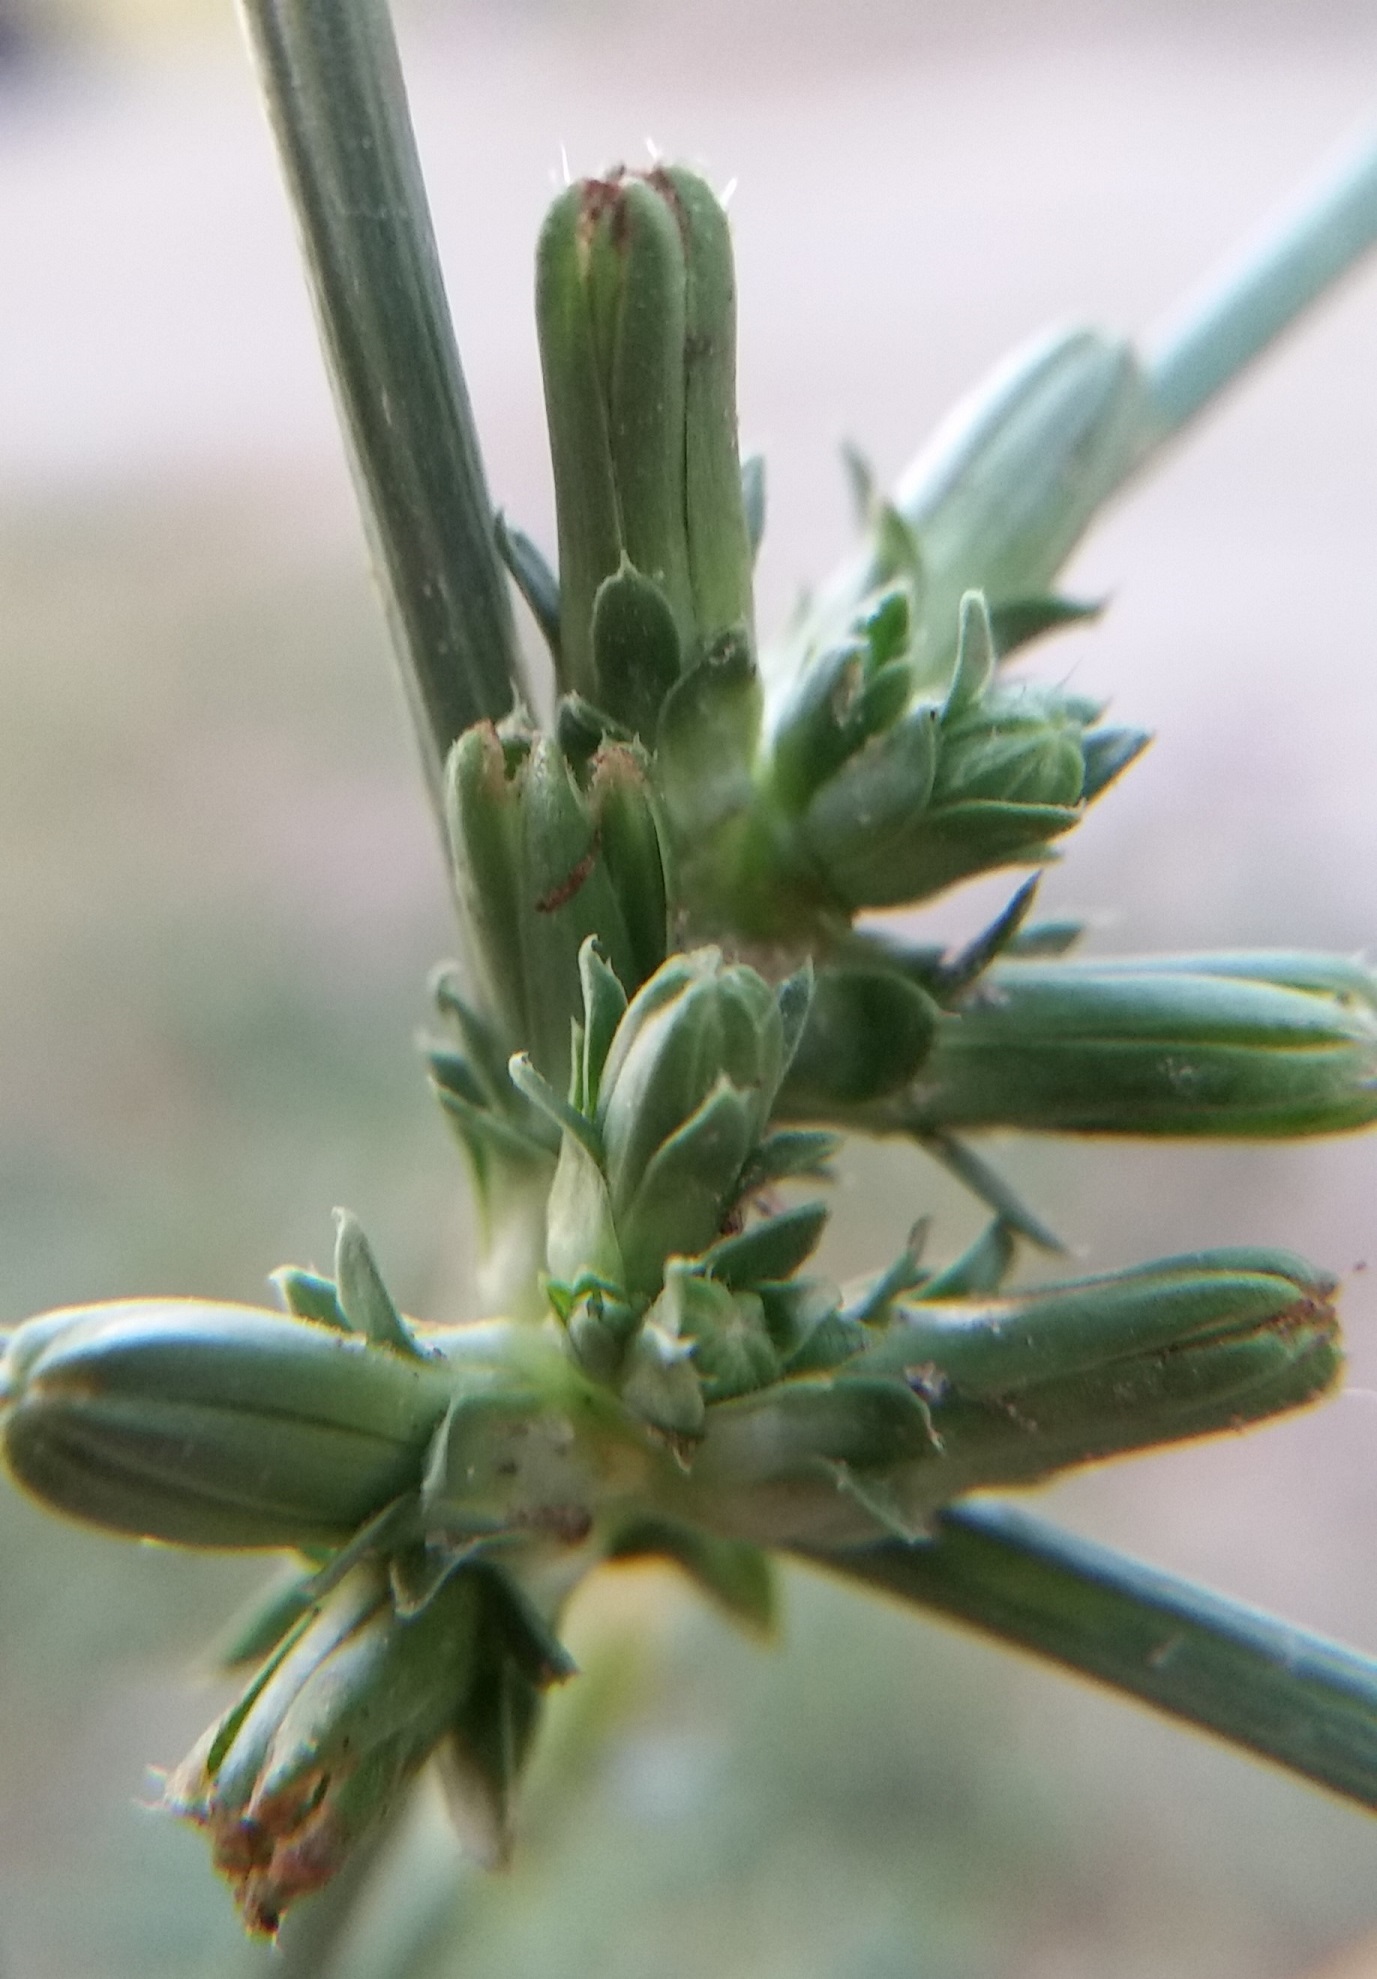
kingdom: Plantae
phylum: Tracheophyta
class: Magnoliopsida
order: Asterales
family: Asteraceae
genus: Cichorium
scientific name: Cichorium intybus
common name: Chicory
